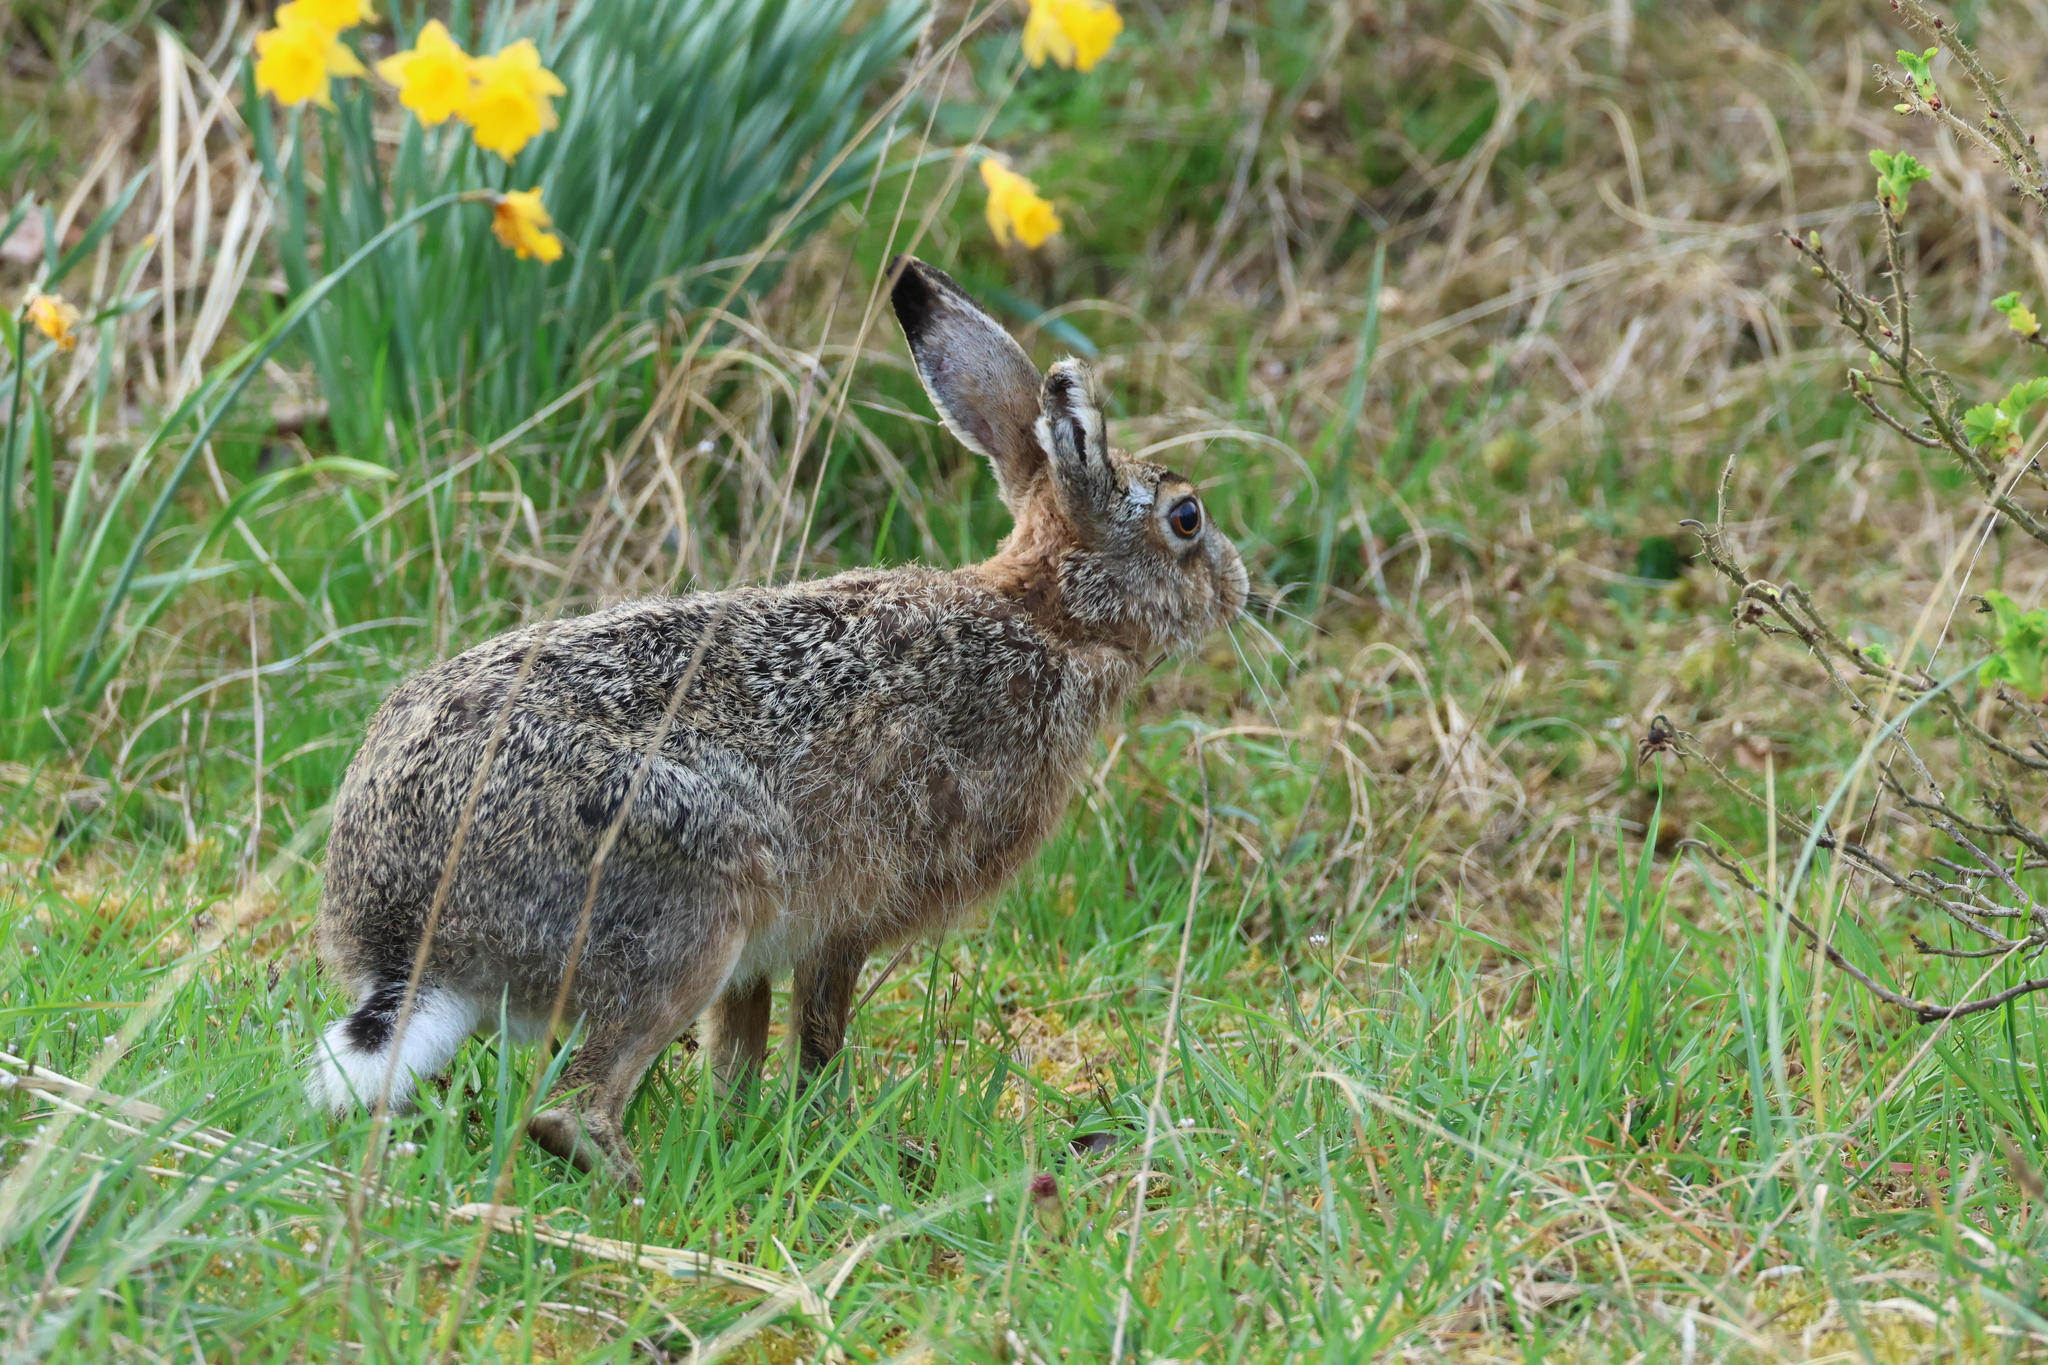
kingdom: Animalia
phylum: Chordata
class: Mammalia
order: Lagomorpha
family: Leporidae
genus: Lepus
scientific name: Lepus europaeus
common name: European hare
